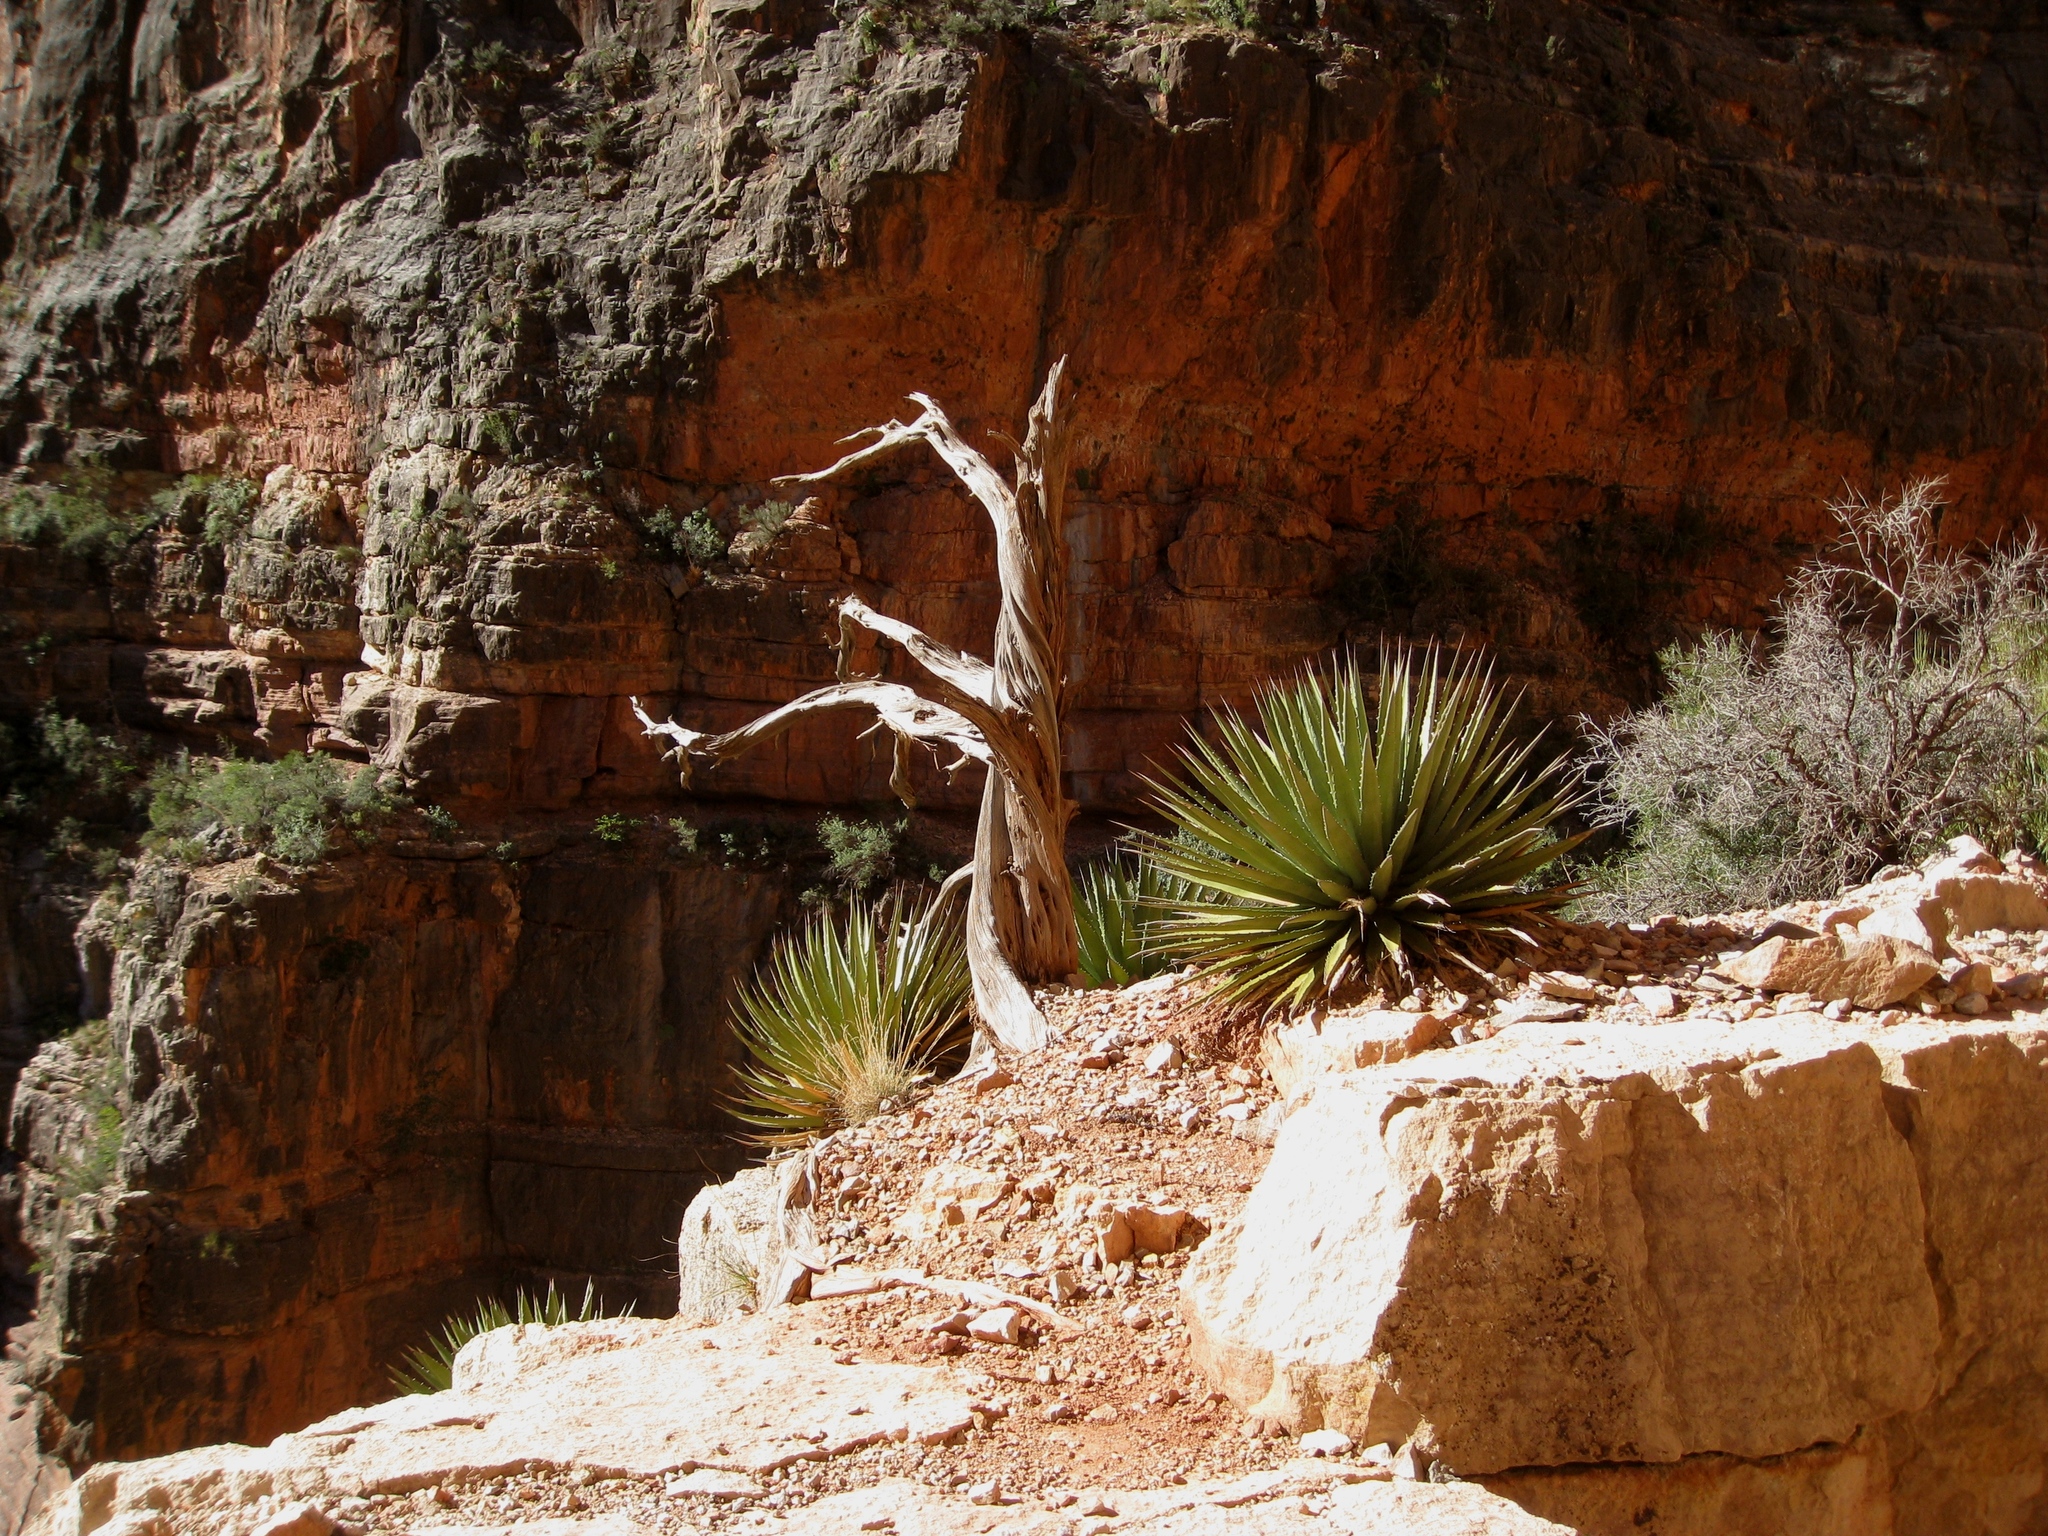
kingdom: Plantae
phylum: Tracheophyta
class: Liliopsida
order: Asparagales
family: Asparagaceae
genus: Agave
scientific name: Agave utahensis
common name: Utah agave
